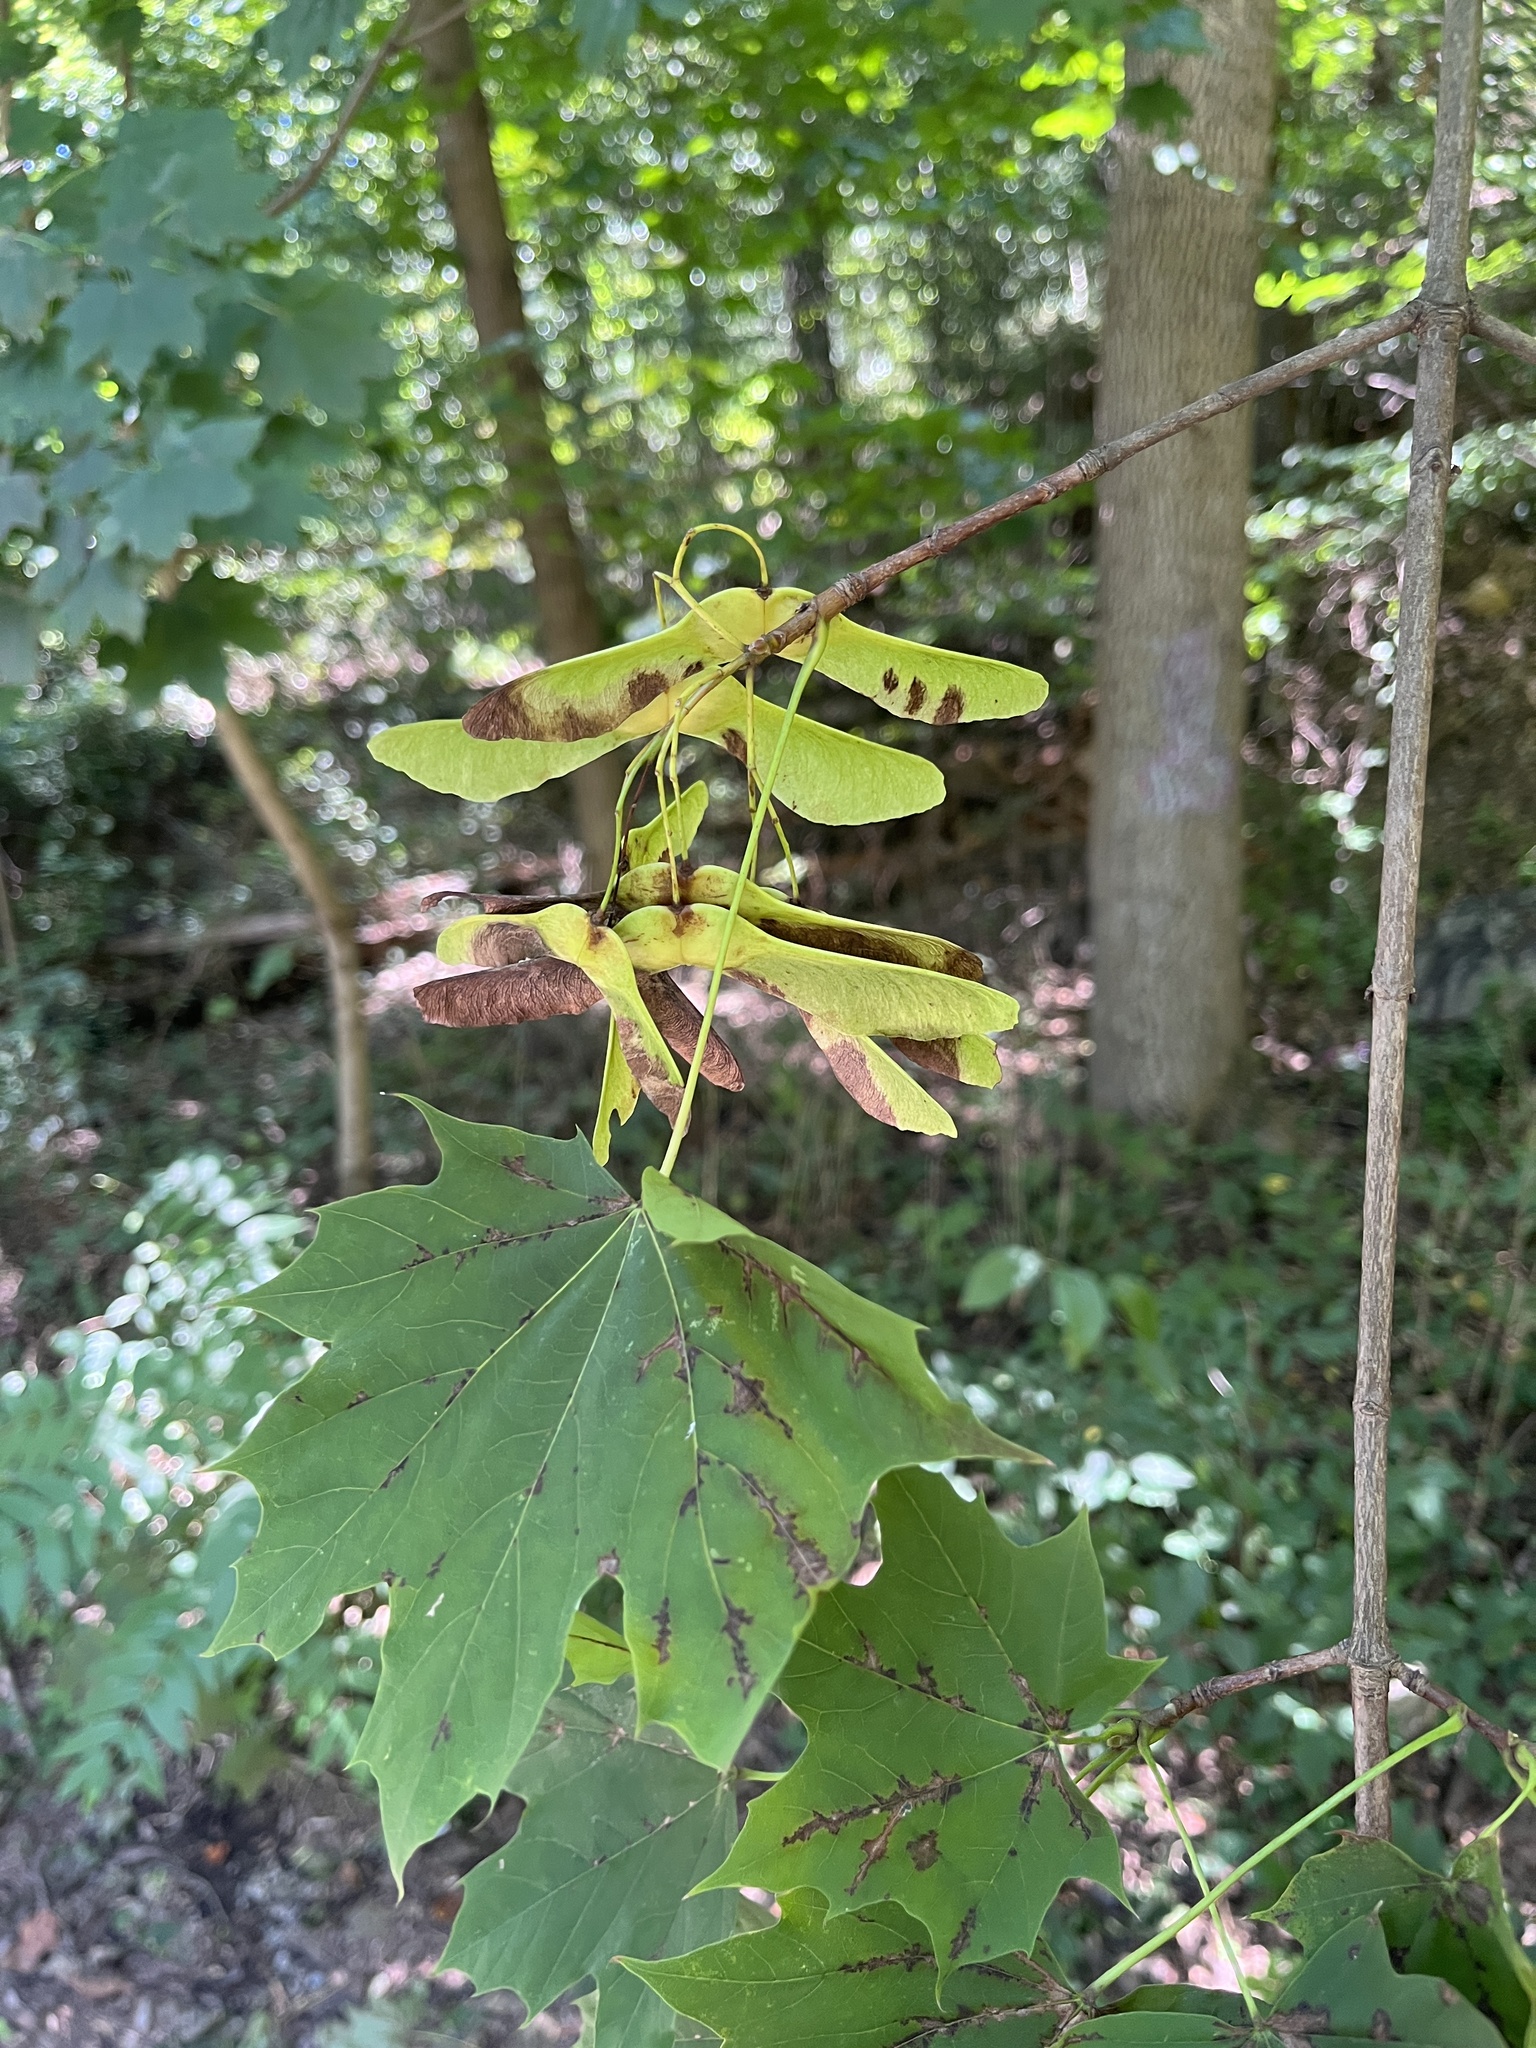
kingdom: Plantae
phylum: Tracheophyta
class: Magnoliopsida
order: Sapindales
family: Sapindaceae
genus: Acer
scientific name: Acer platanoides
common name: Norway maple
